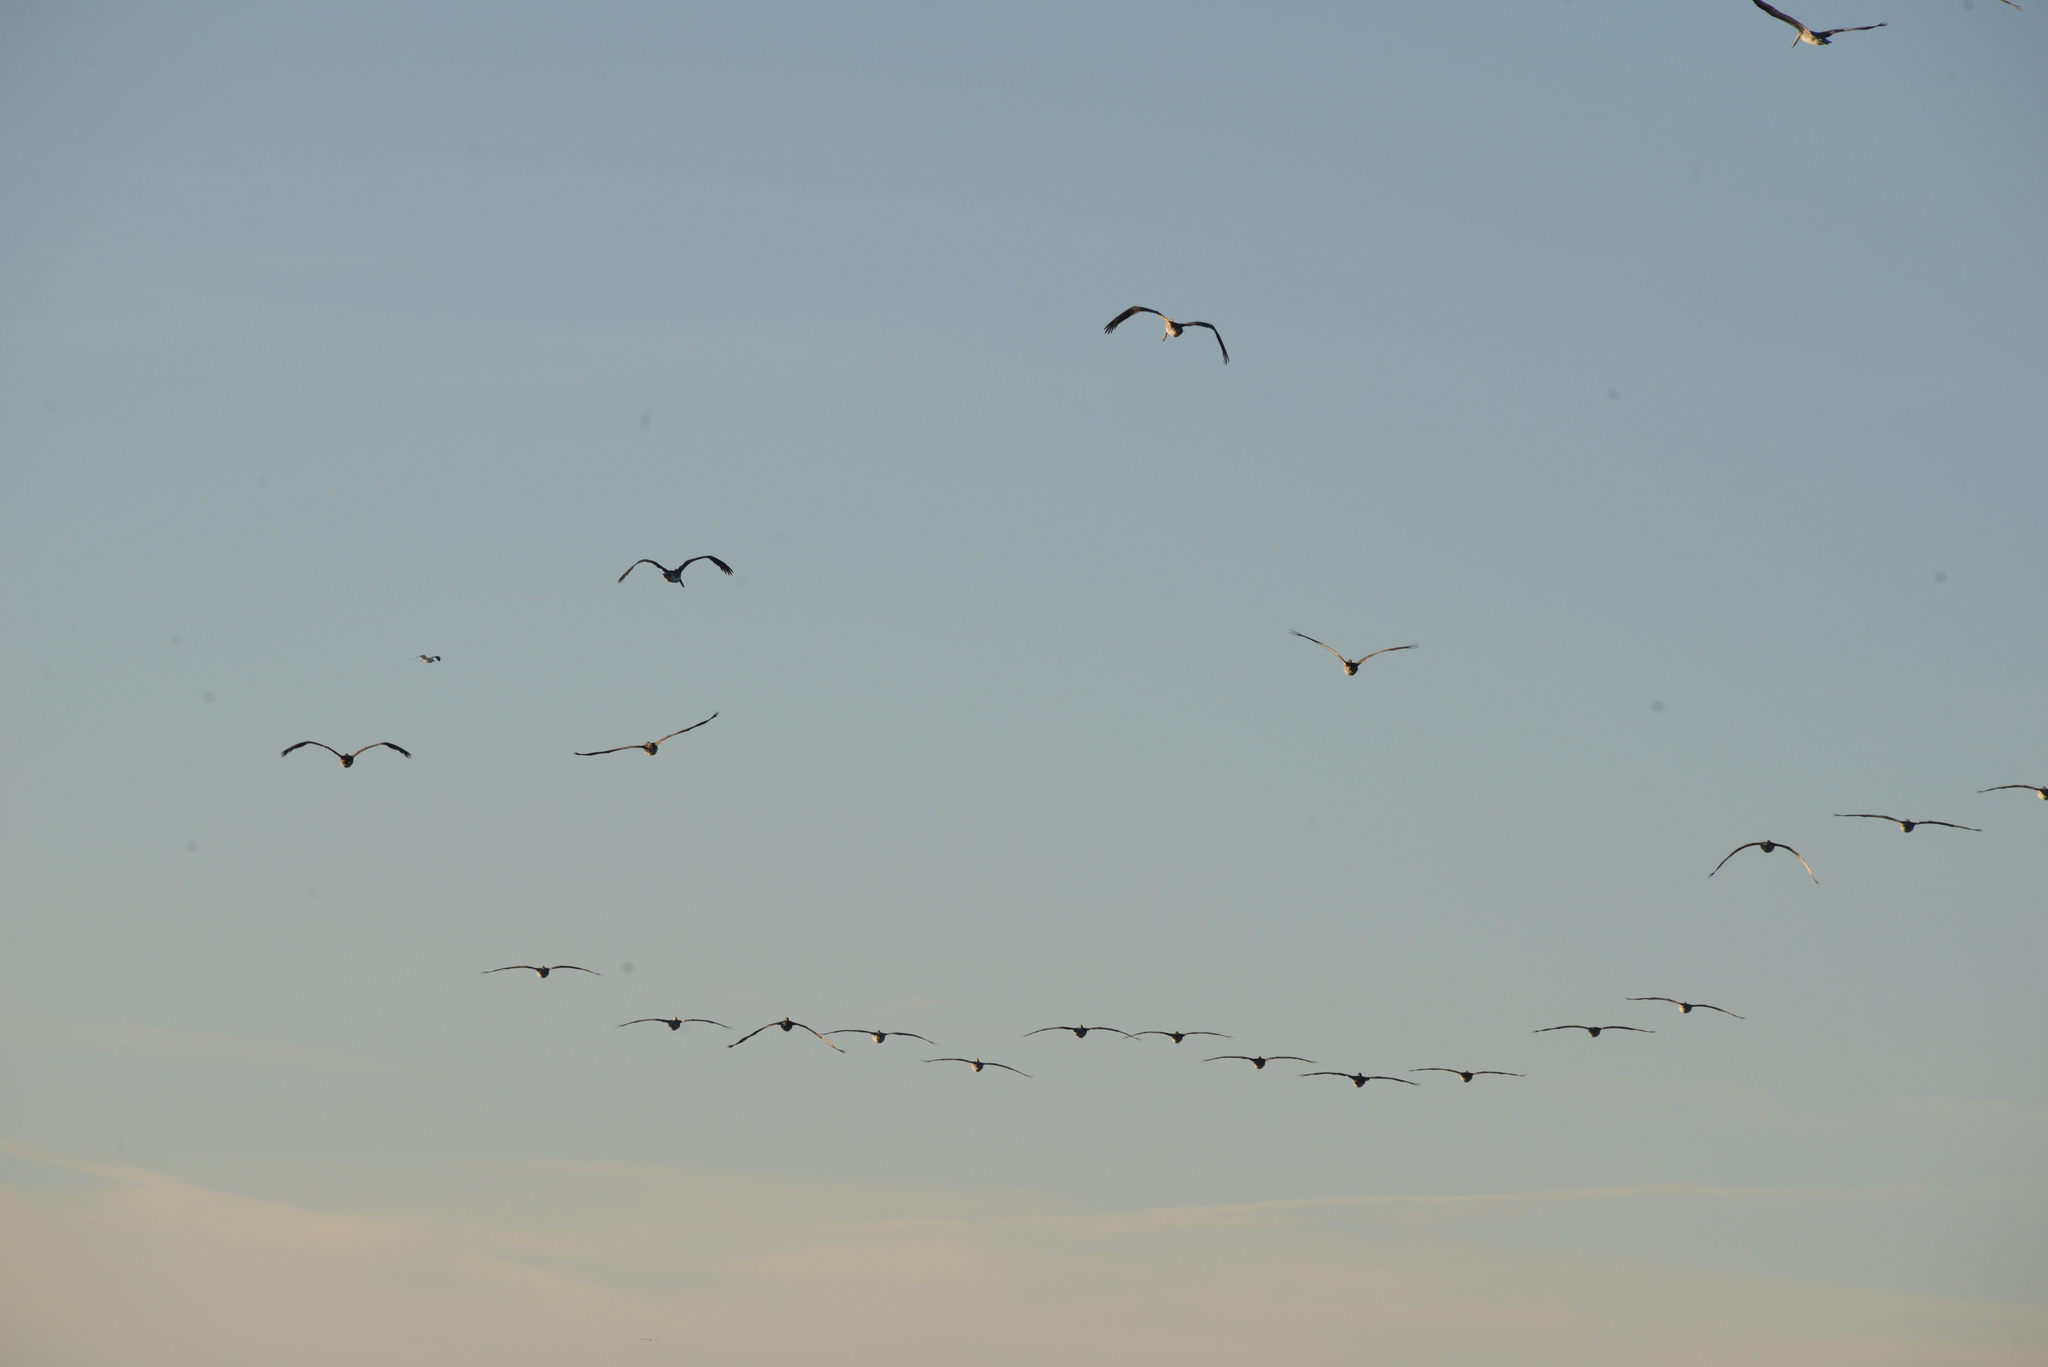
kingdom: Animalia
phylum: Chordata
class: Aves
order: Pelecaniformes
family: Pelecanidae
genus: Pelecanus
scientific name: Pelecanus occidentalis
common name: Brown pelican
